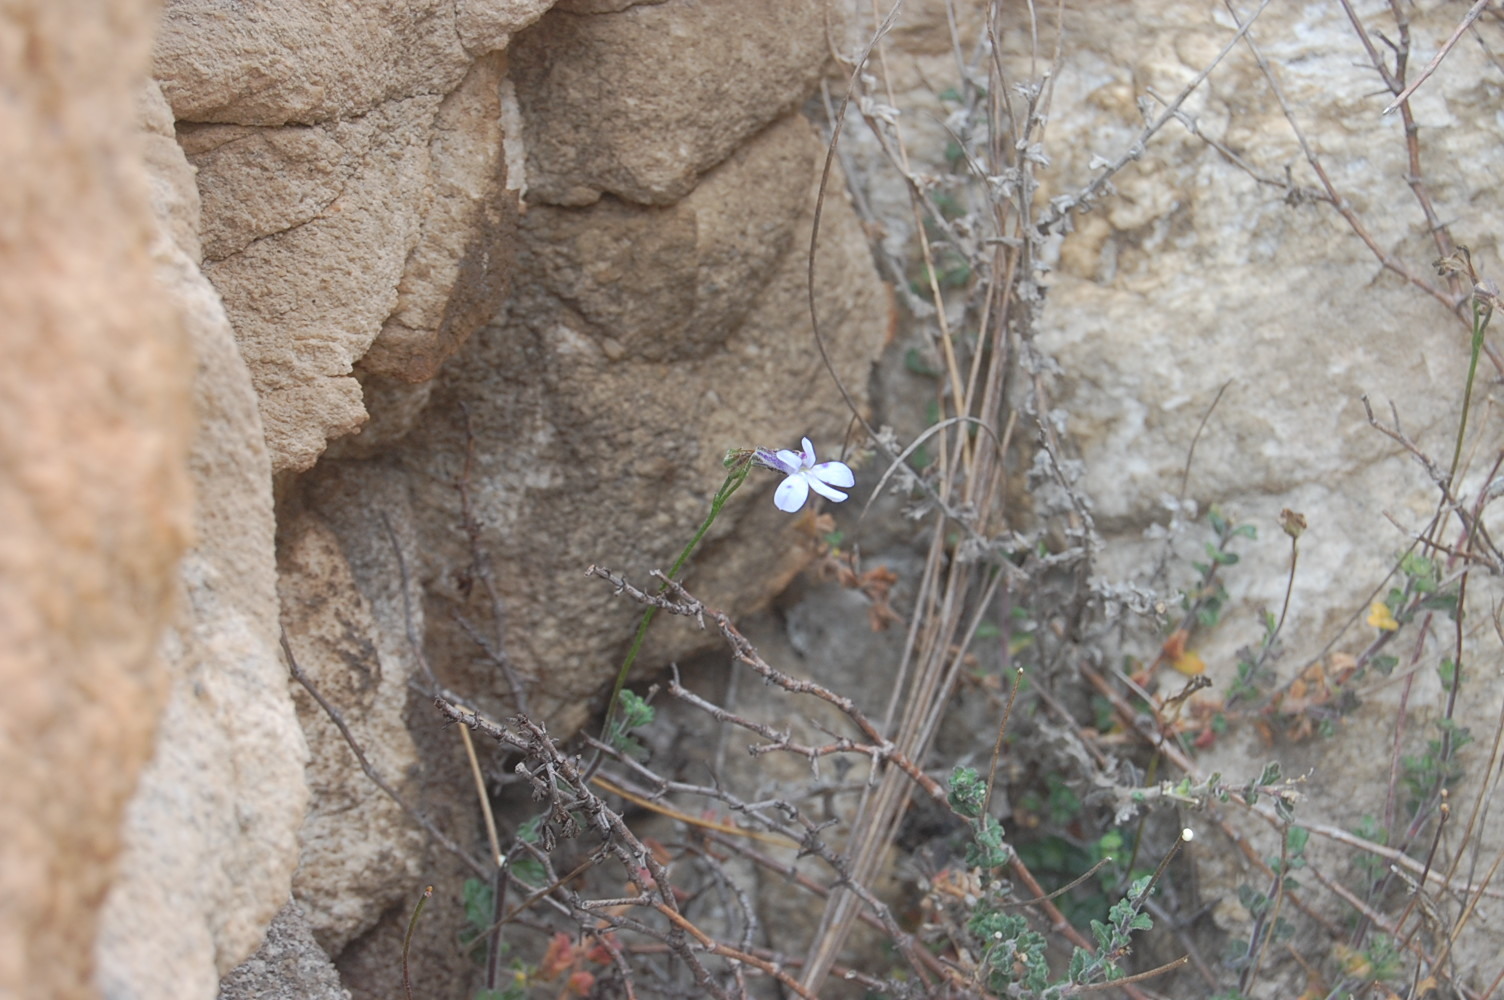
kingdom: Plantae
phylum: Tracheophyta
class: Magnoliopsida
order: Asterales
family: Campanulaceae
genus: Lobelia
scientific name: Lobelia dichroma
